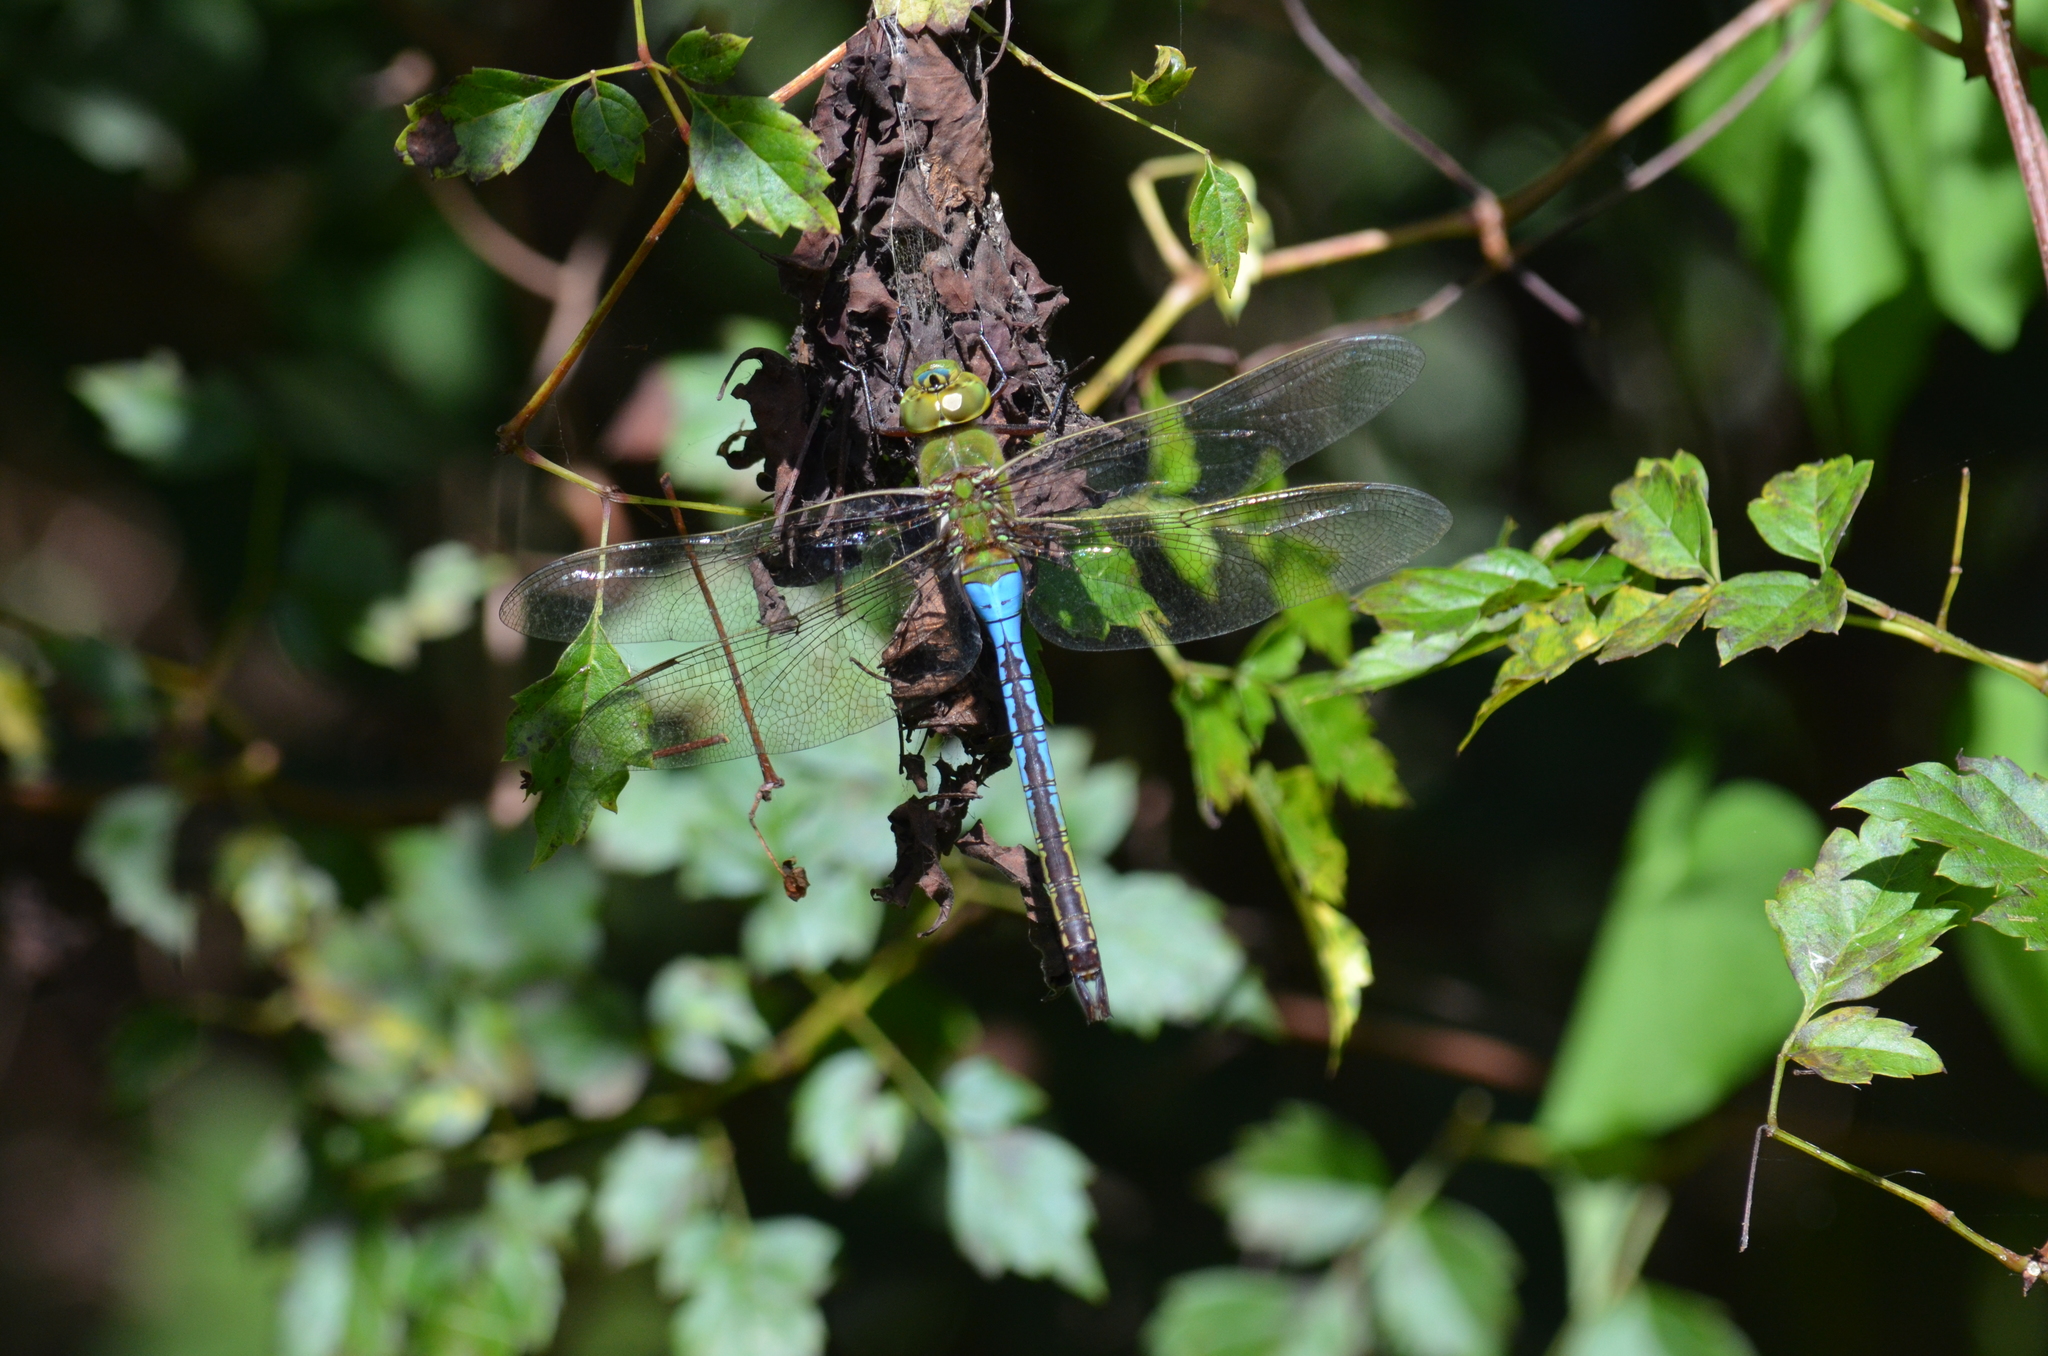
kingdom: Animalia
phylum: Arthropoda
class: Insecta
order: Odonata
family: Aeshnidae
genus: Anax
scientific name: Anax junius
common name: Common green darner
